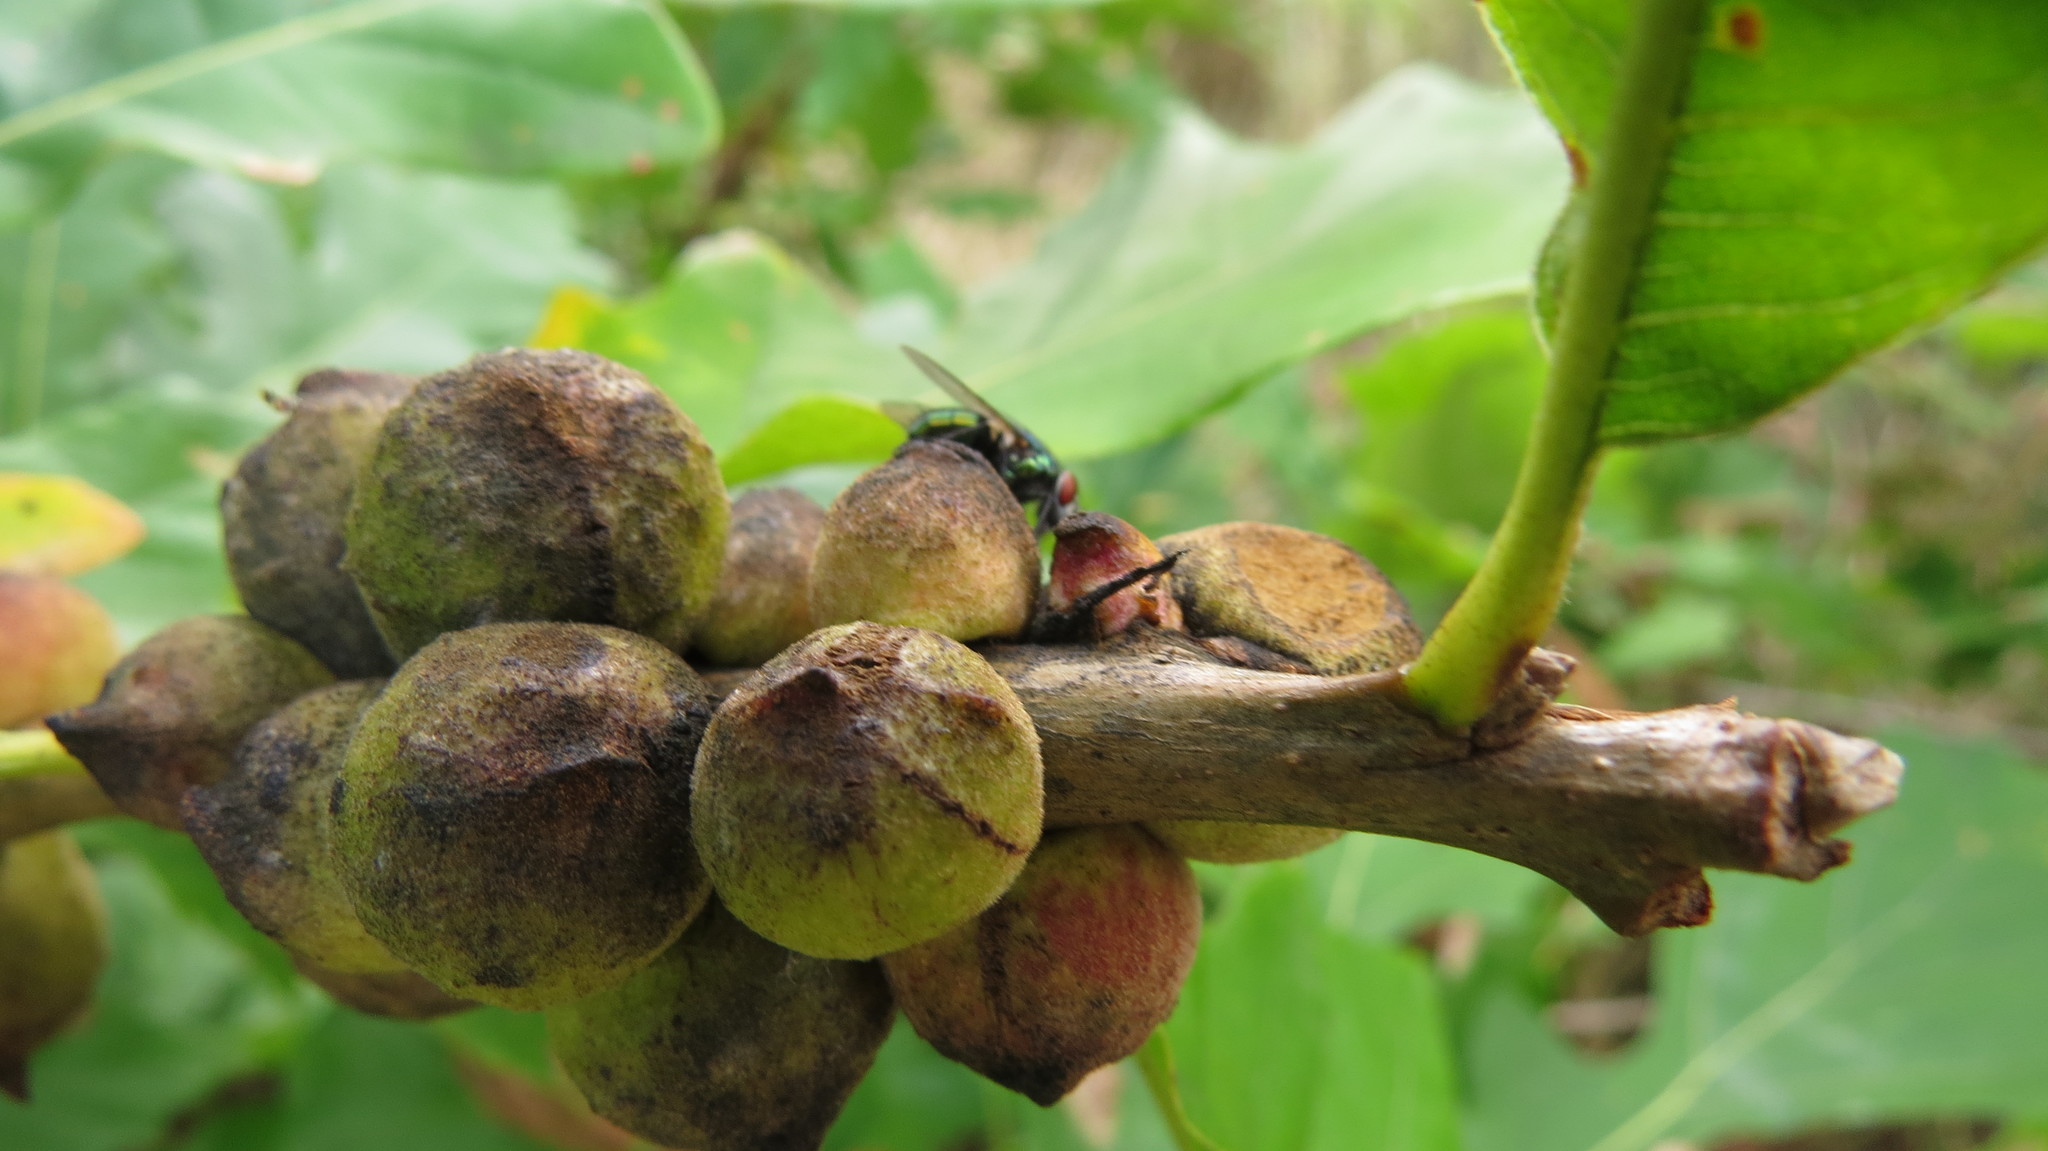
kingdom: Animalia
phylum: Arthropoda
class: Insecta
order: Hymenoptera
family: Cynipidae
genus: Disholcaspis
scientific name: Disholcaspis
